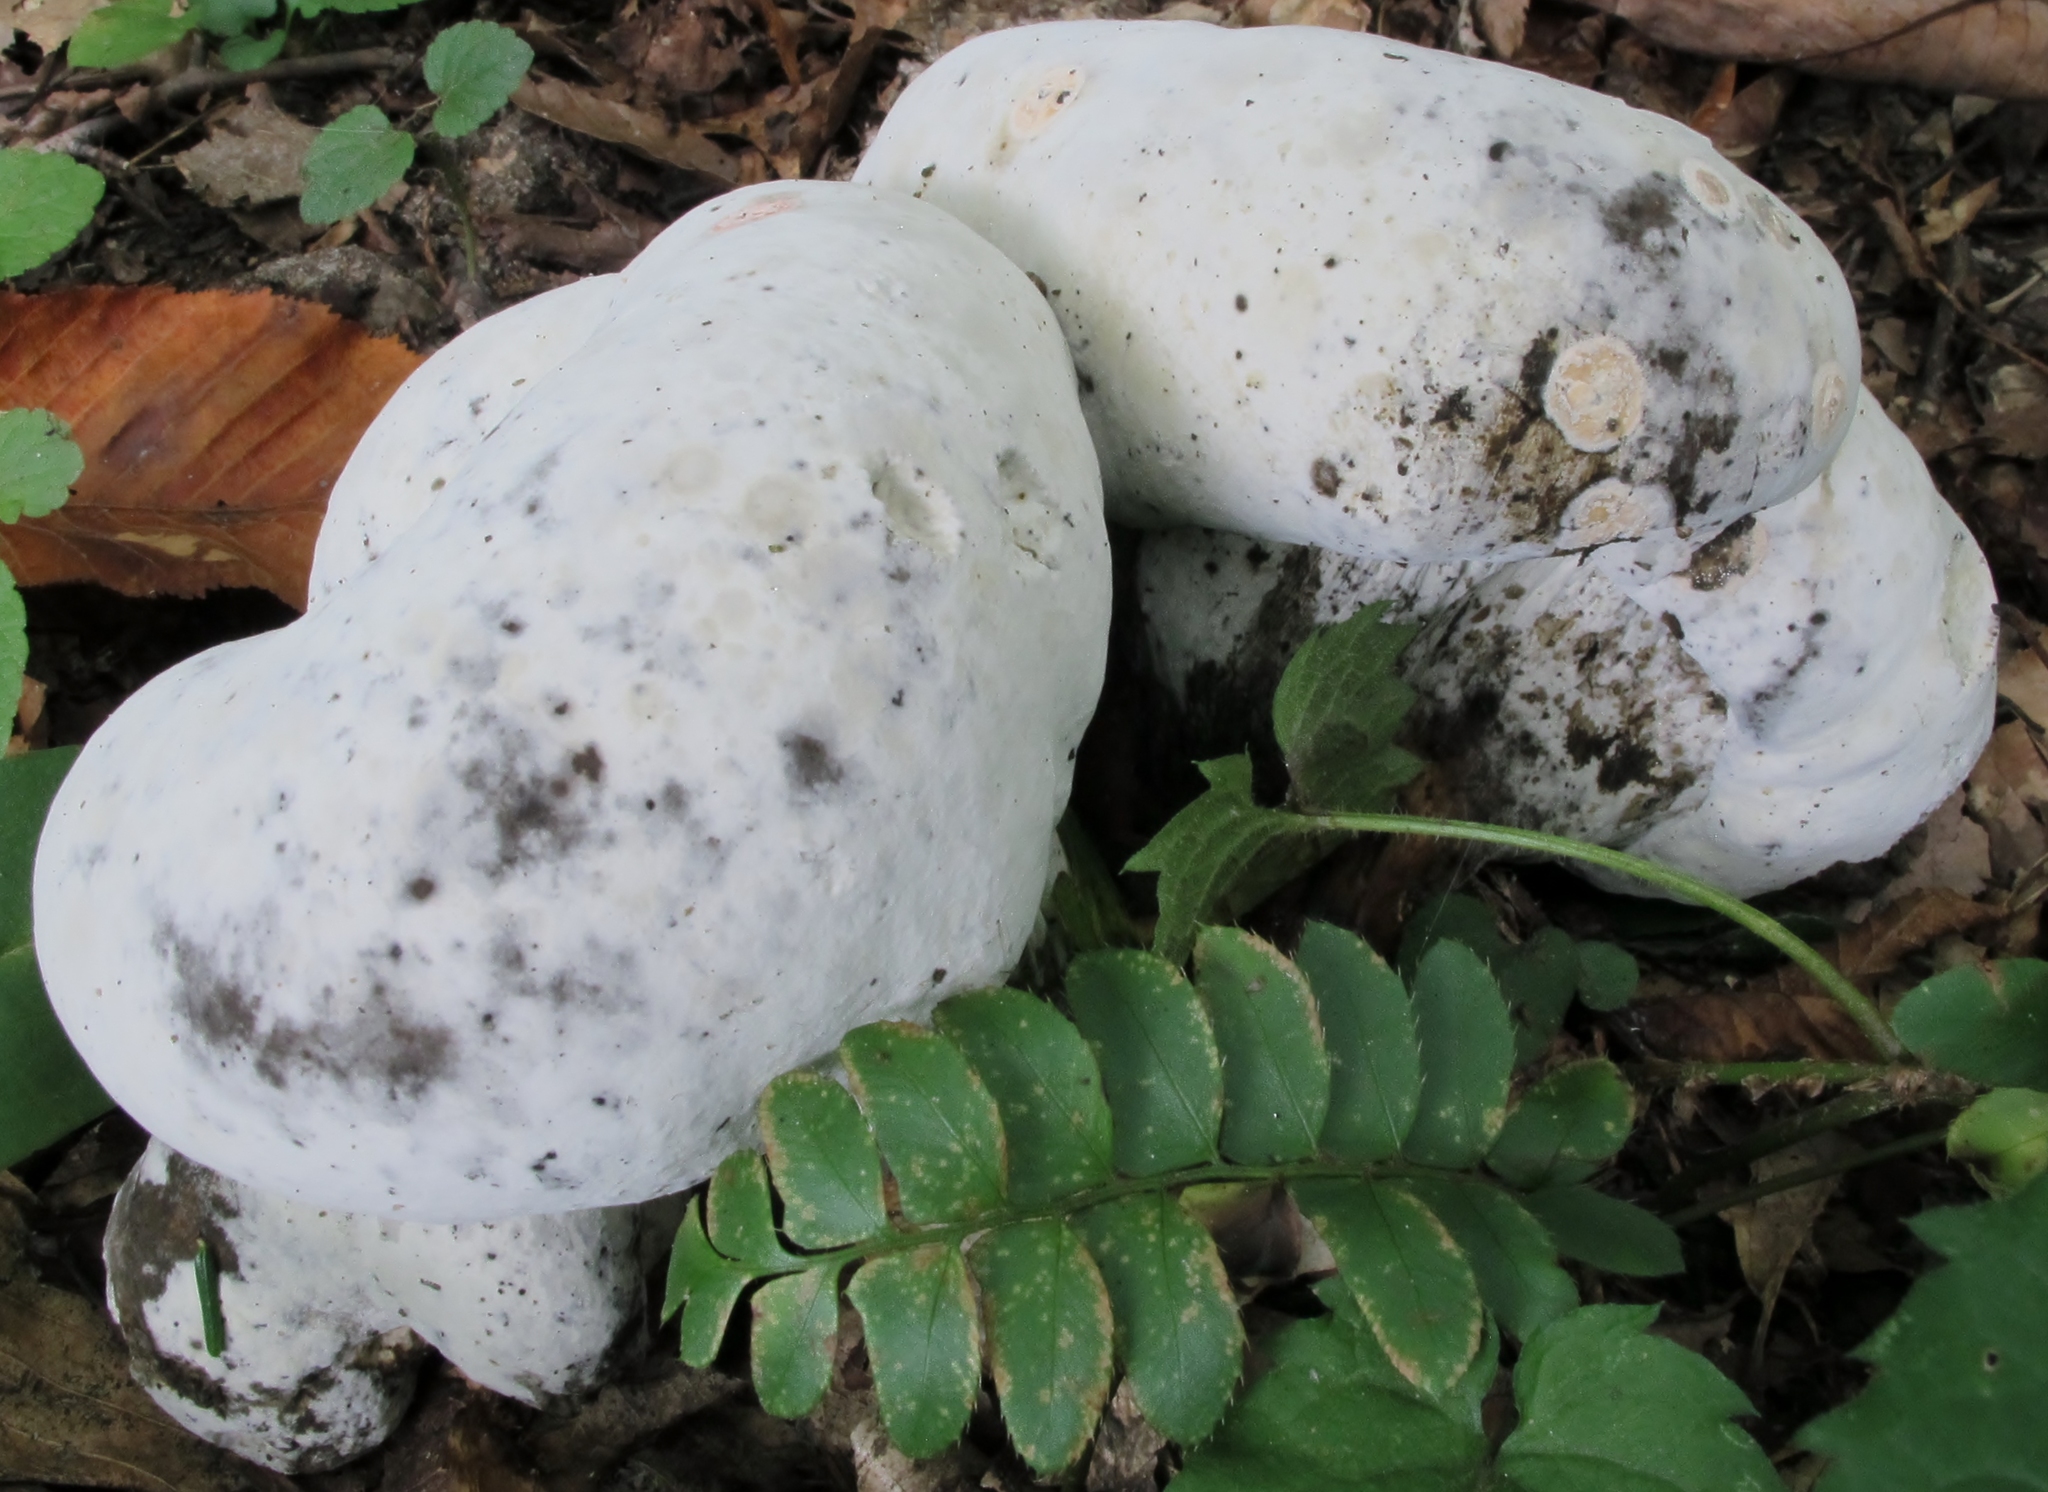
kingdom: Fungi
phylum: Ascomycota
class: Sordariomycetes
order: Hypocreales
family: Hypocreaceae
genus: Hypomyces
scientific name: Hypomyces melanocarpus
